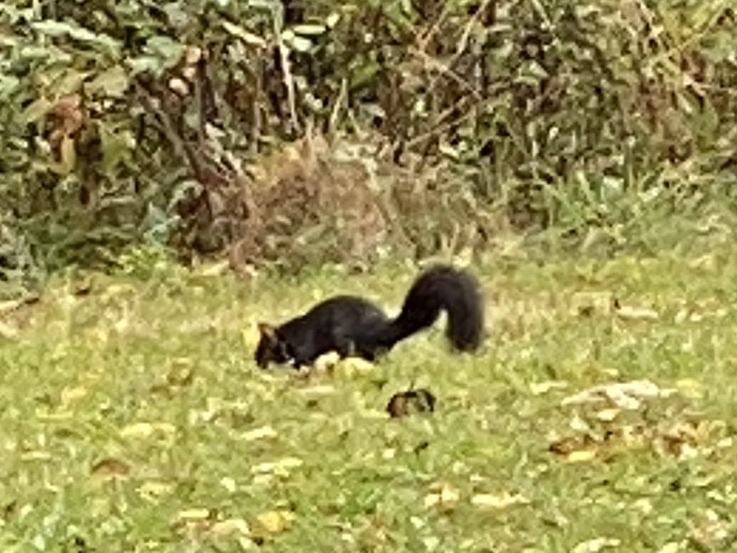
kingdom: Animalia
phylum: Chordata
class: Mammalia
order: Rodentia
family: Sciuridae
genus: Sciurus
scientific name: Sciurus carolinensis
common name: Eastern gray squirrel
